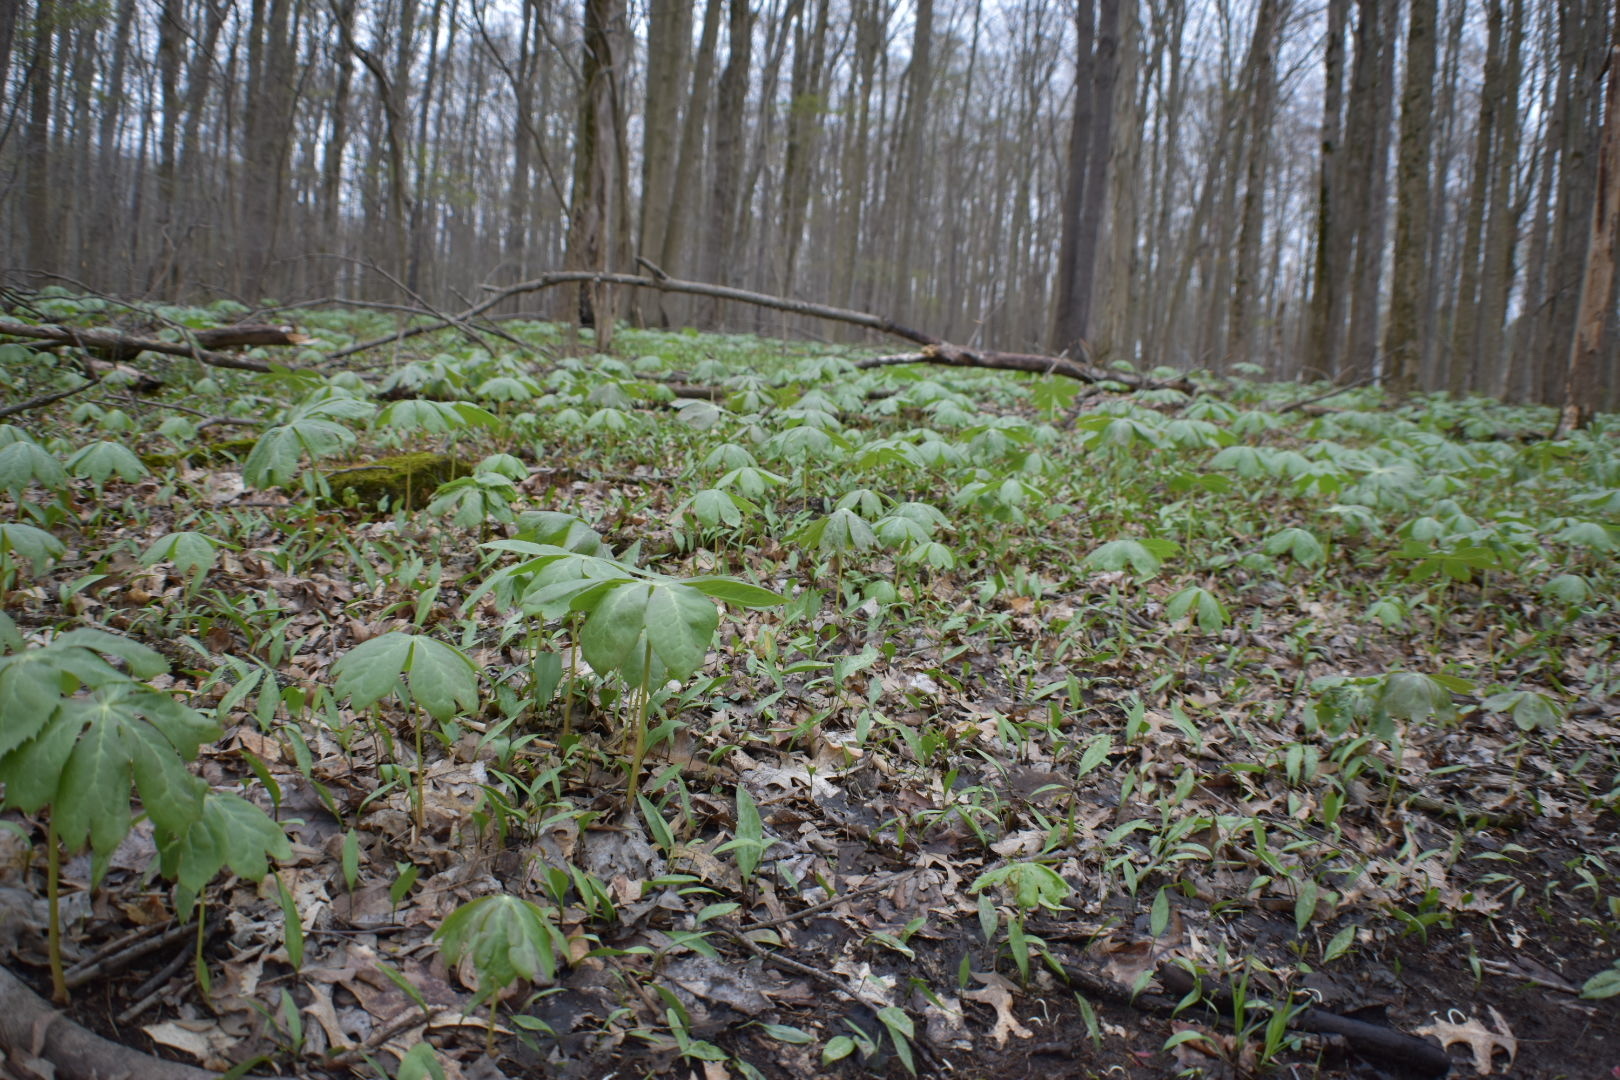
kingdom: Plantae
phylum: Tracheophyta
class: Magnoliopsida
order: Ranunculales
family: Berberidaceae
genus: Podophyllum
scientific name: Podophyllum peltatum
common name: Wild mandrake
